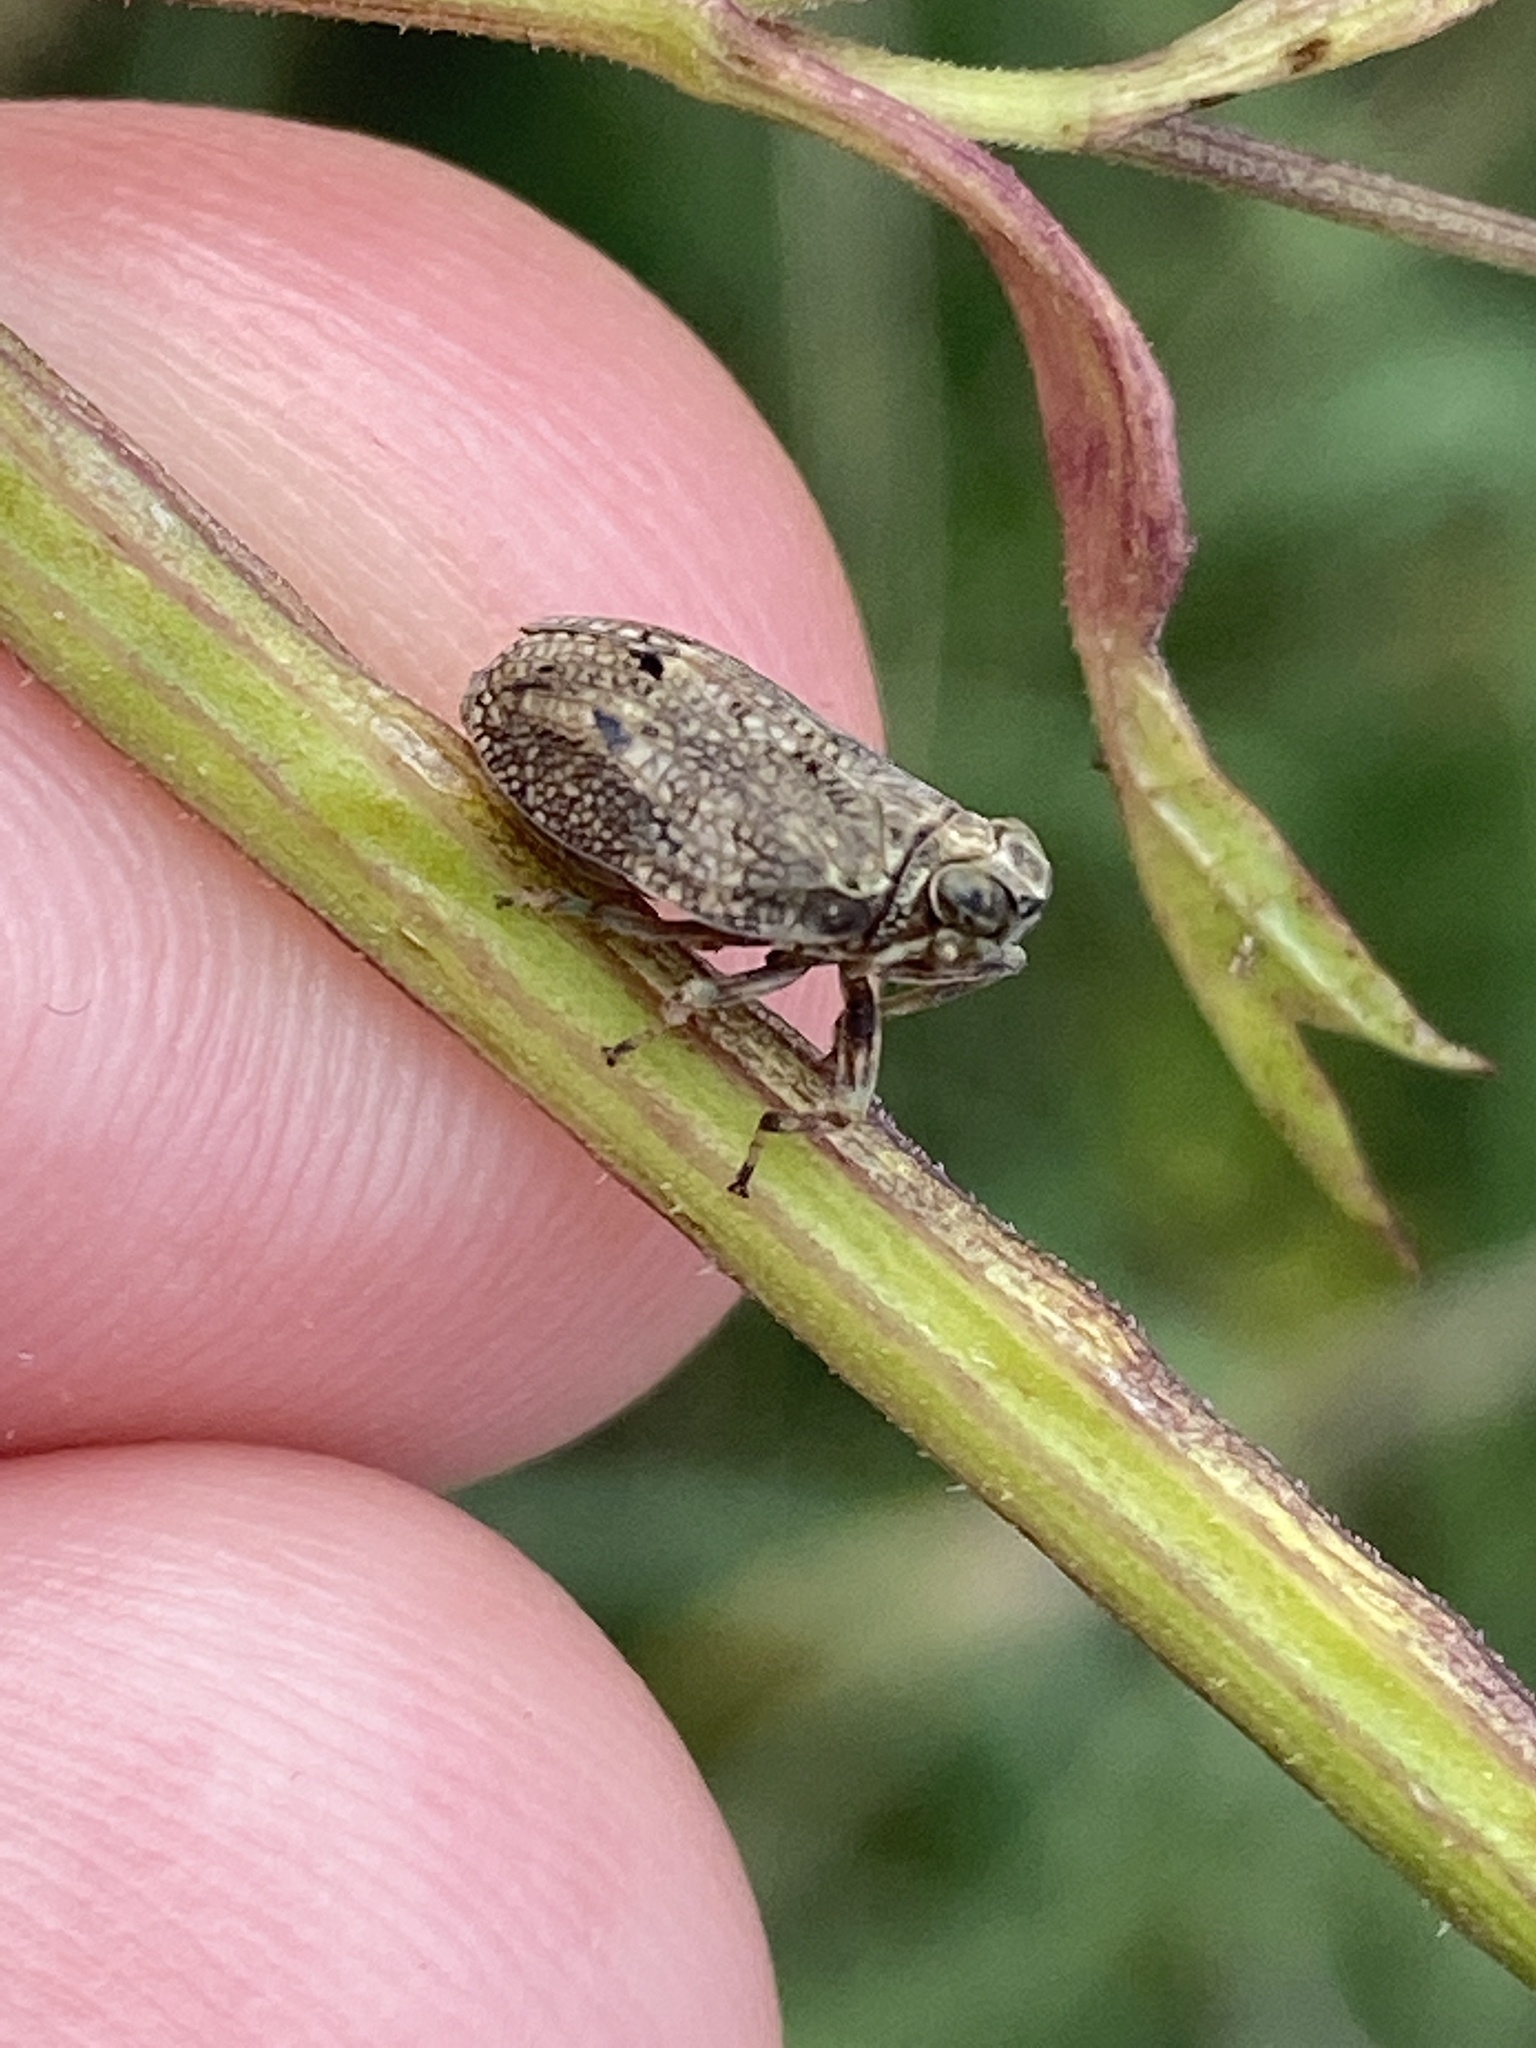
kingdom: Animalia
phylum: Arthropoda
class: Insecta
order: Hemiptera
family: Issidae
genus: Issus
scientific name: Issus coleoptratus
